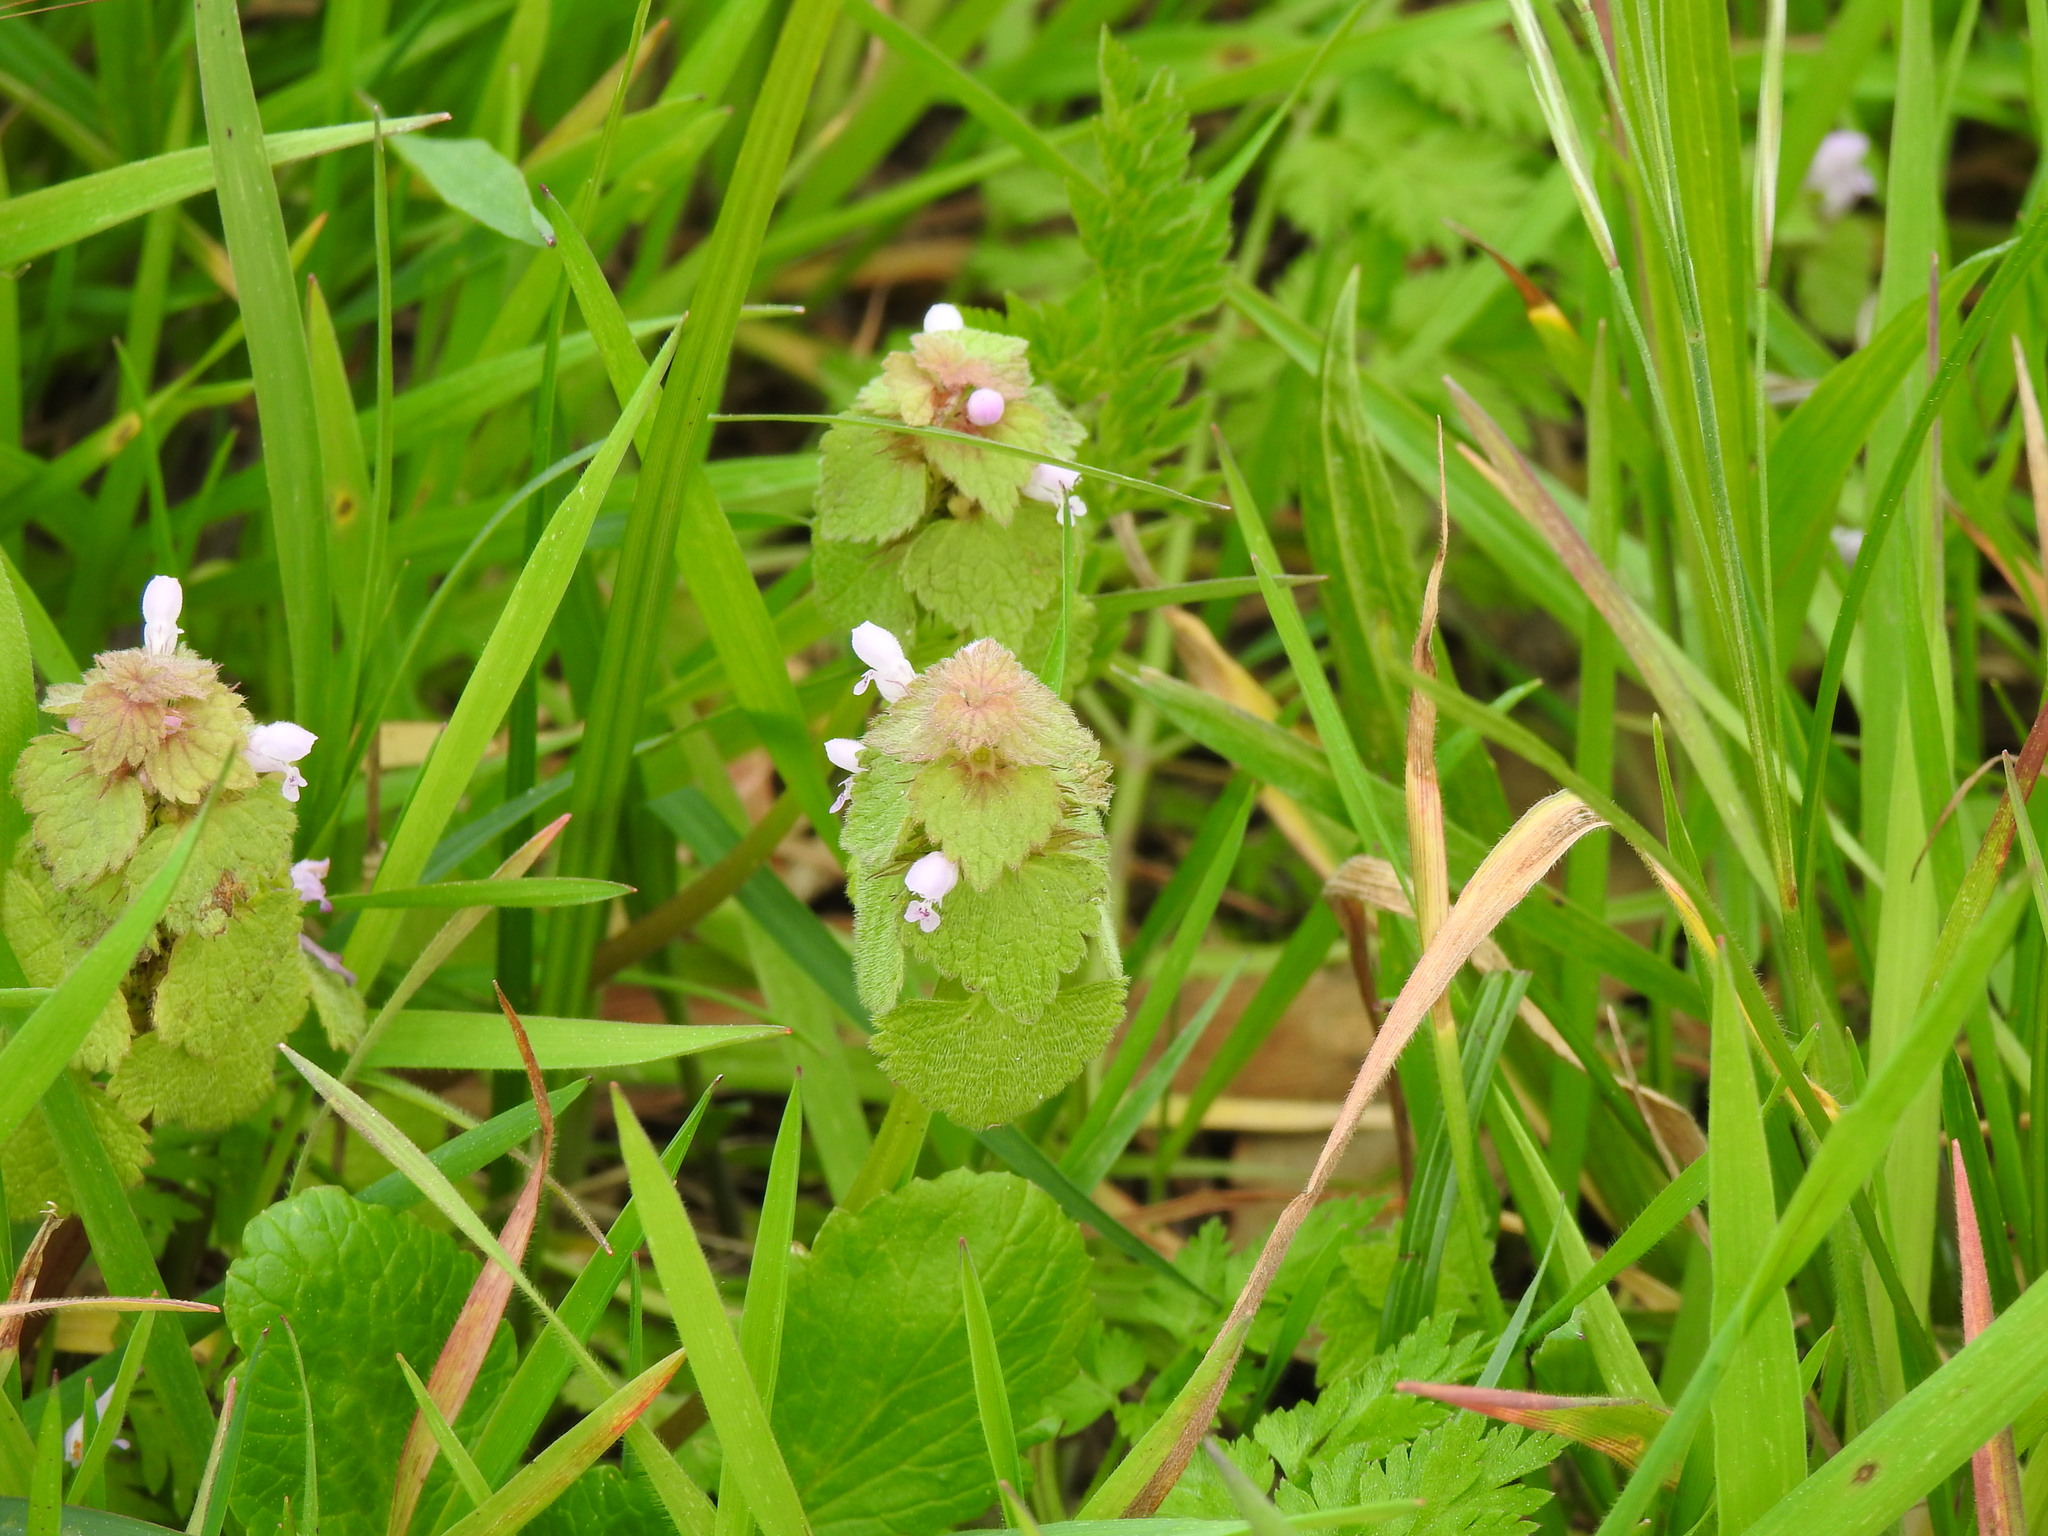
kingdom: Plantae
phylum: Tracheophyta
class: Magnoliopsida
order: Lamiales
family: Lamiaceae
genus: Lamium
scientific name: Lamium purpureum
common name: Red dead-nettle
